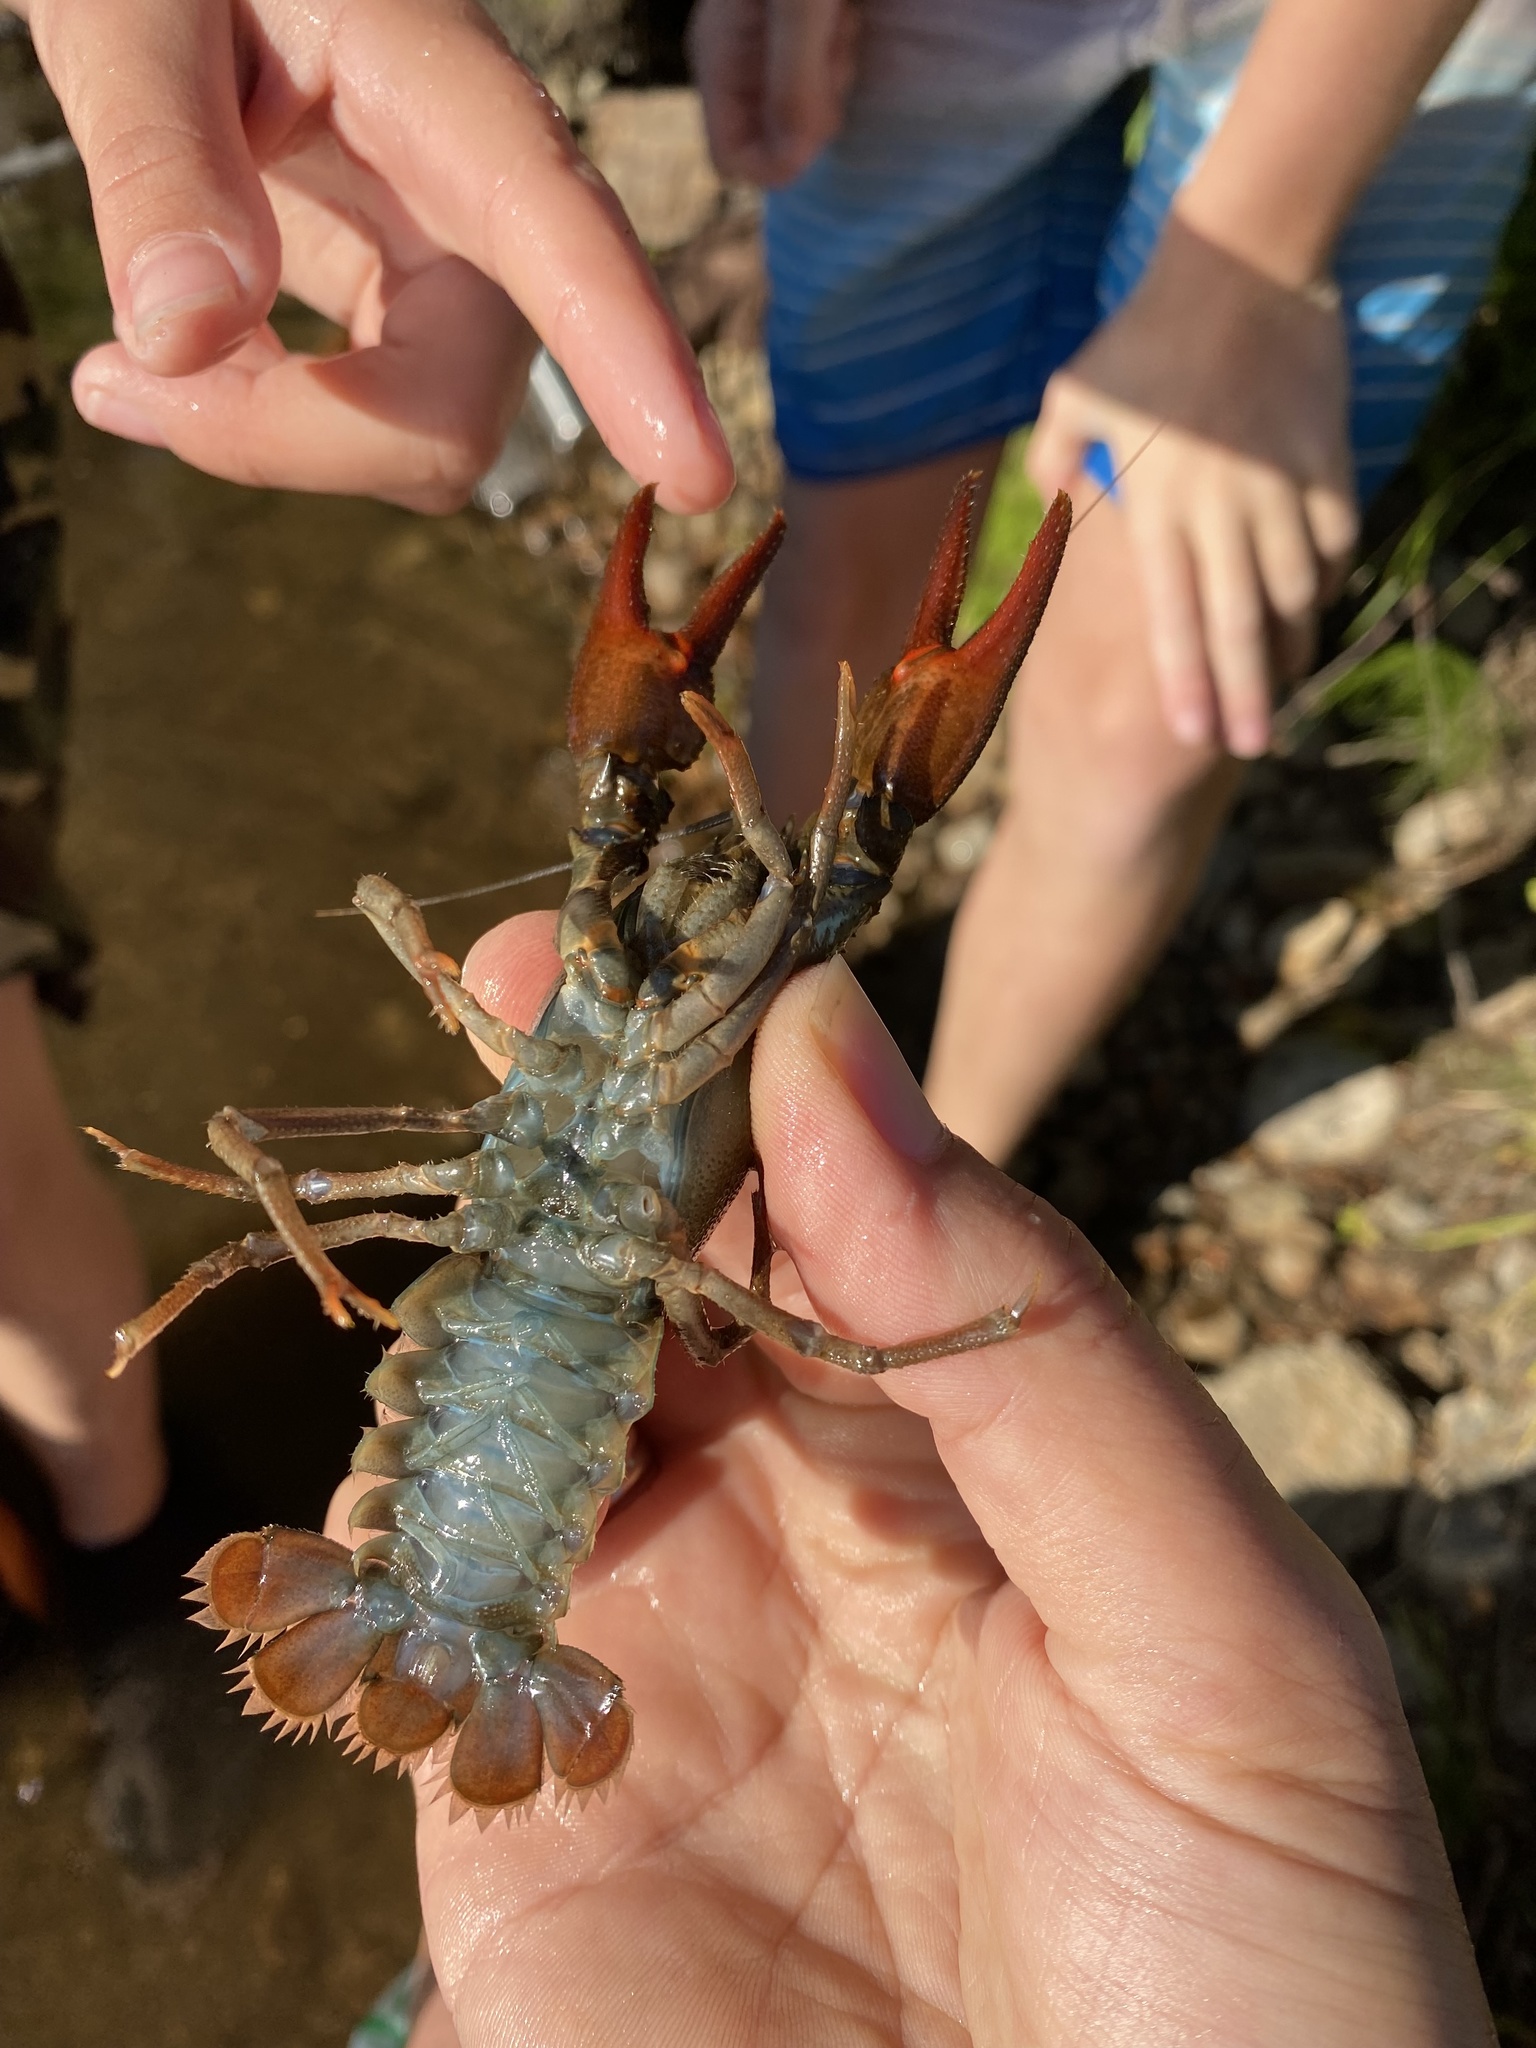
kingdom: Animalia
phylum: Arthropoda
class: Malacostraca
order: Decapoda
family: Astacidae
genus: Astacus
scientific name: Astacus astacus
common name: Noble crayfish
